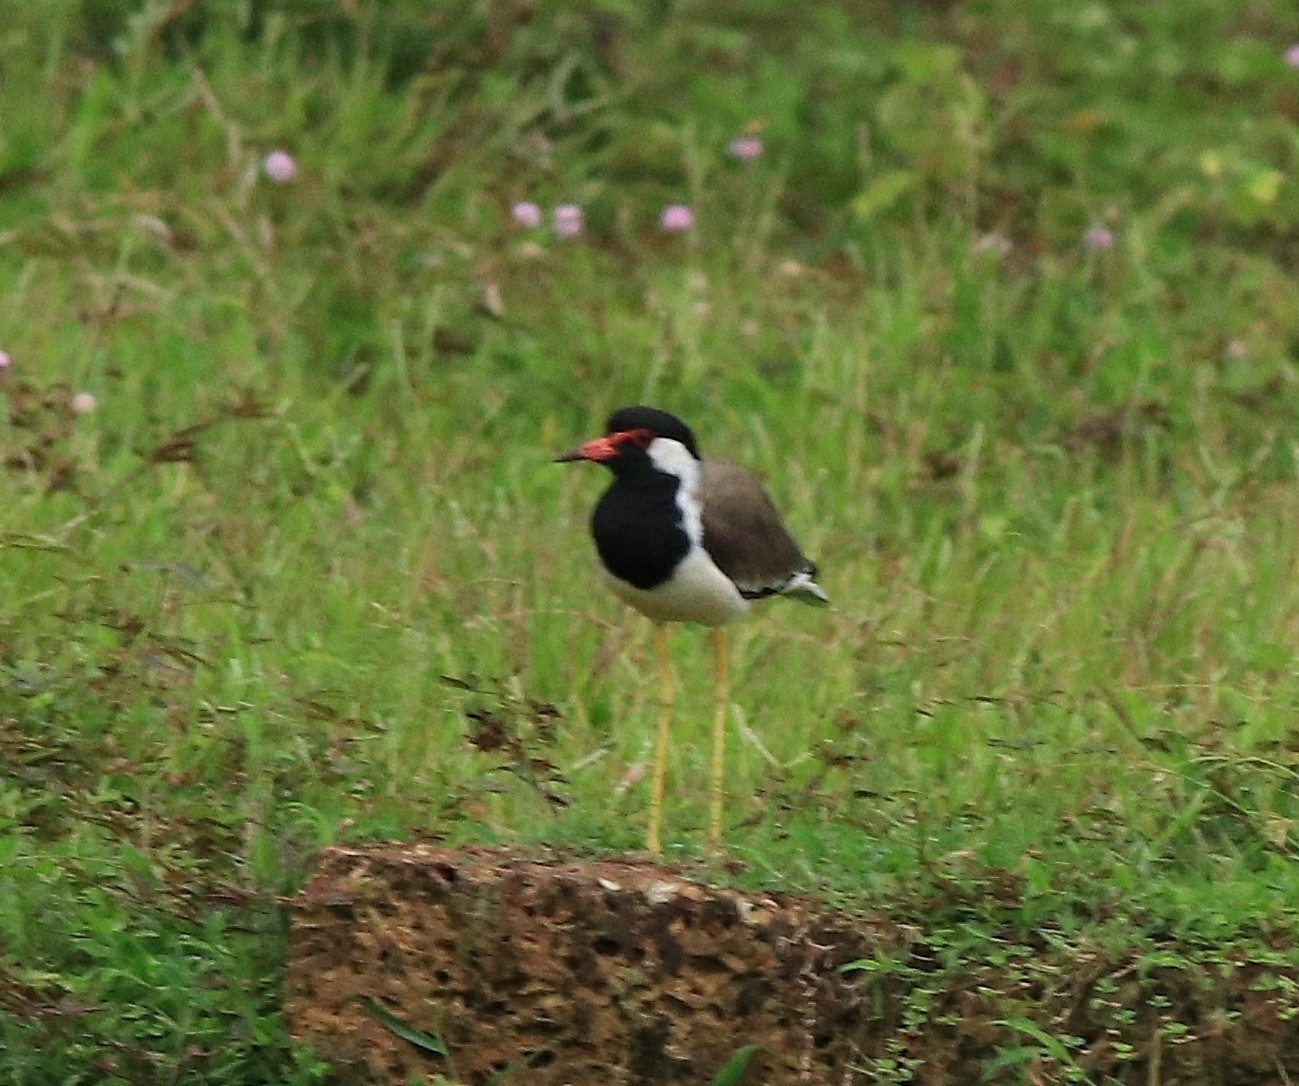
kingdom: Animalia
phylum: Chordata
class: Aves
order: Charadriiformes
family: Charadriidae
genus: Vanellus
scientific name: Vanellus indicus
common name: Red-wattled lapwing
